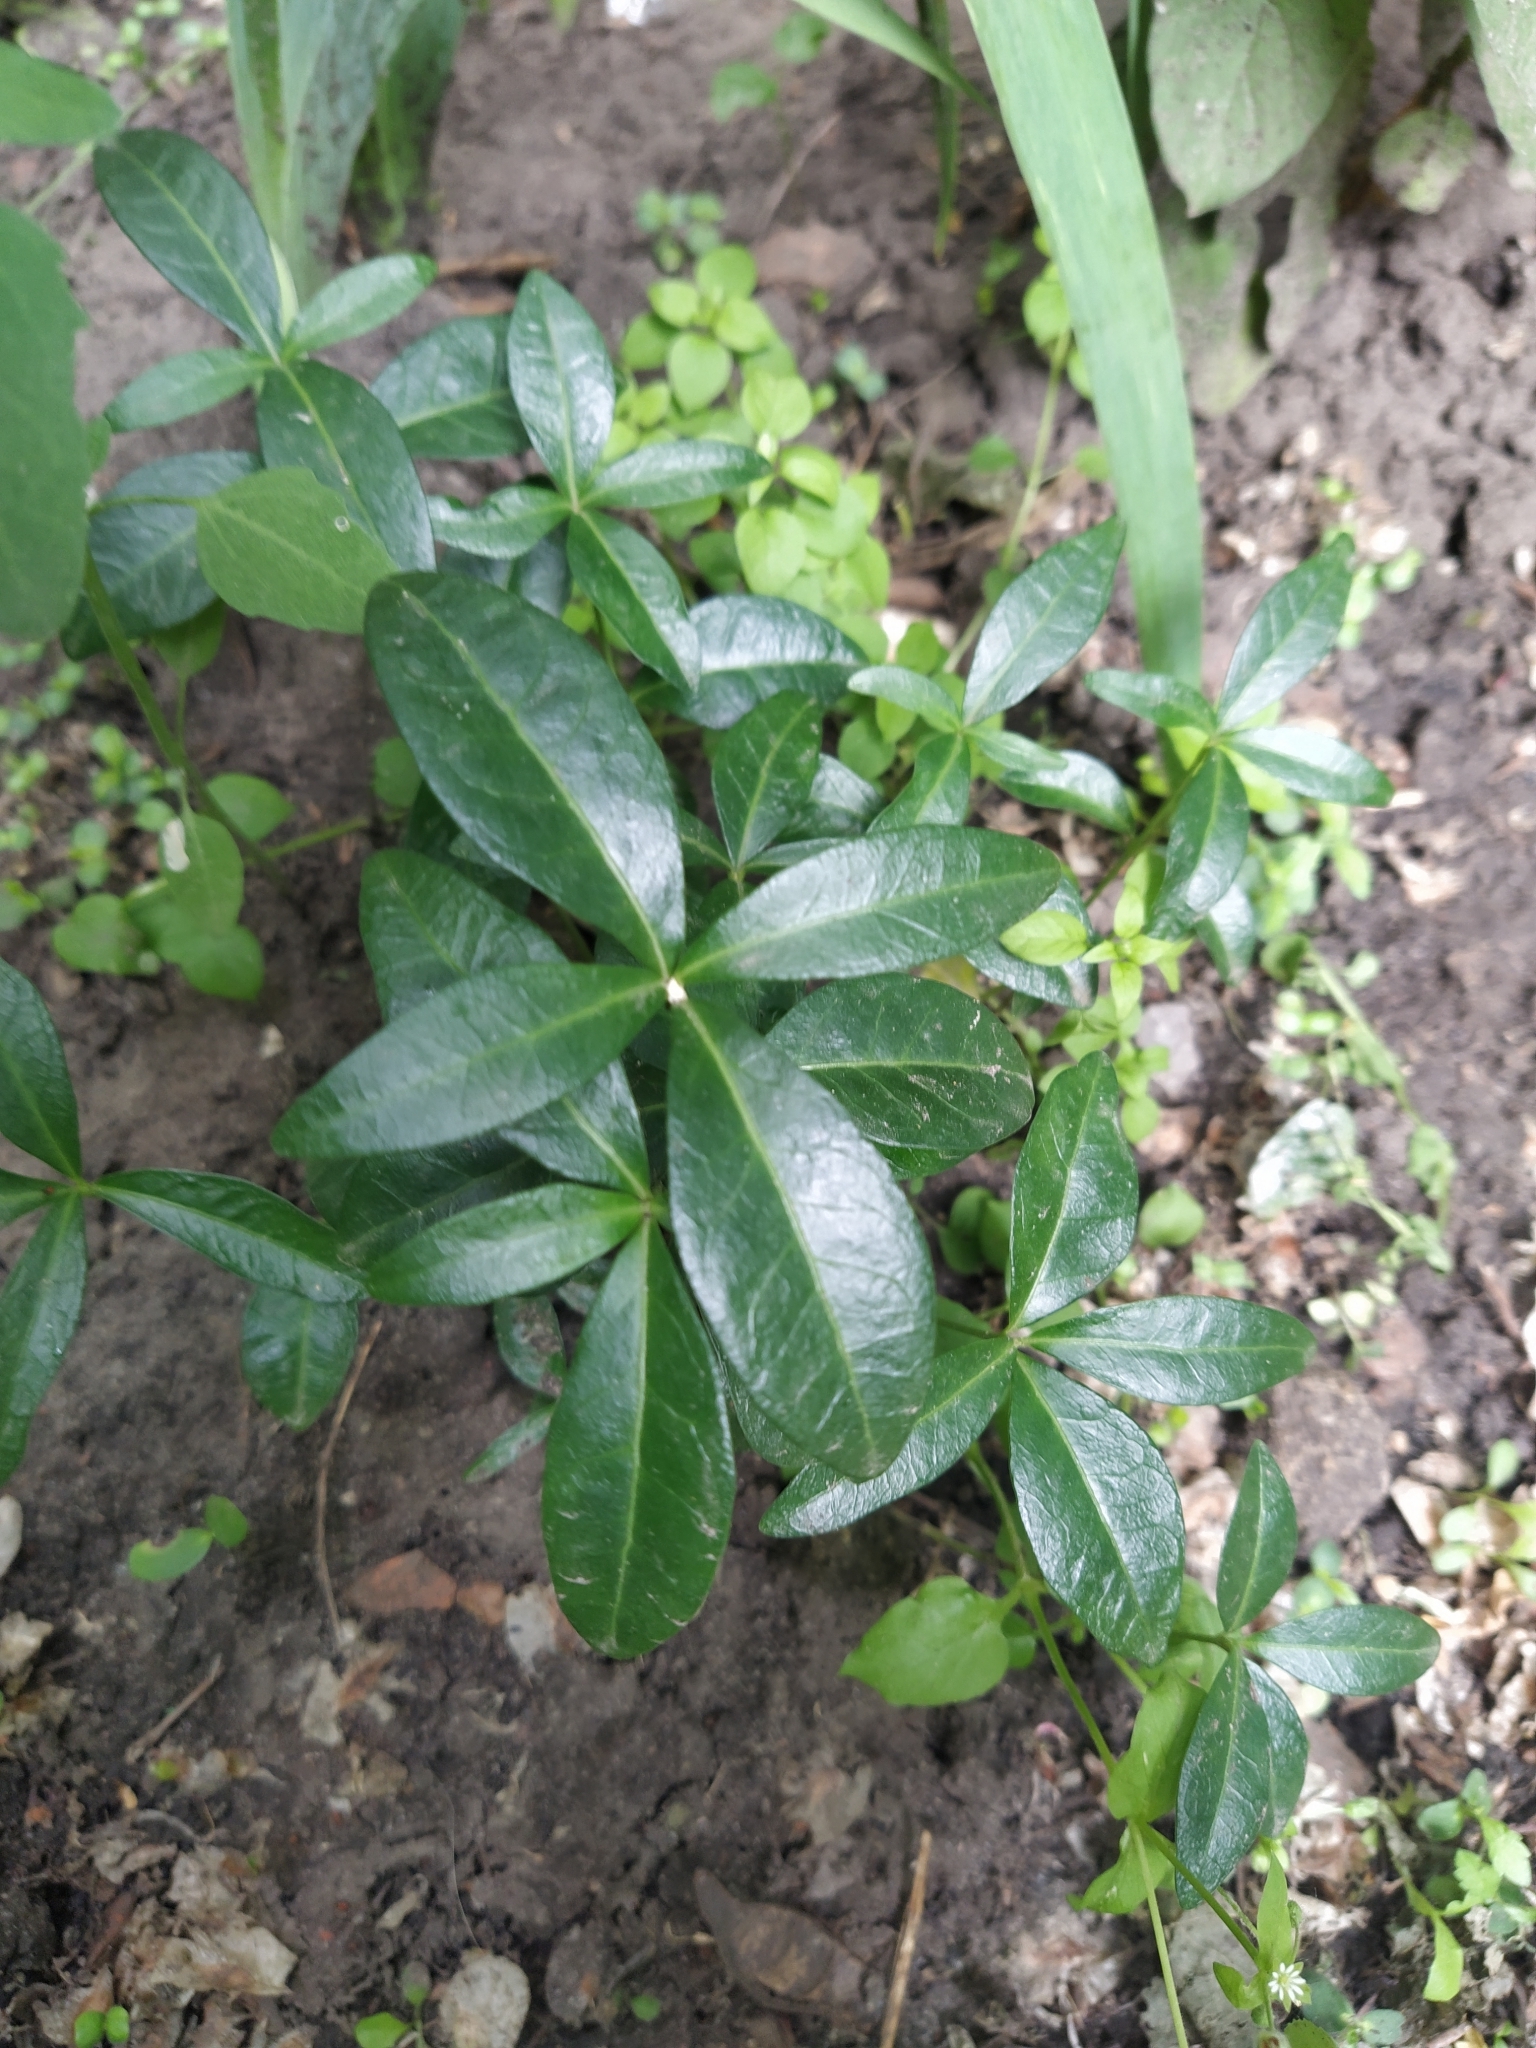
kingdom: Plantae
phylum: Tracheophyta
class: Magnoliopsida
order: Gentianales
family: Apocynaceae
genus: Vinca
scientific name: Vinca minor
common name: Lesser periwinkle
